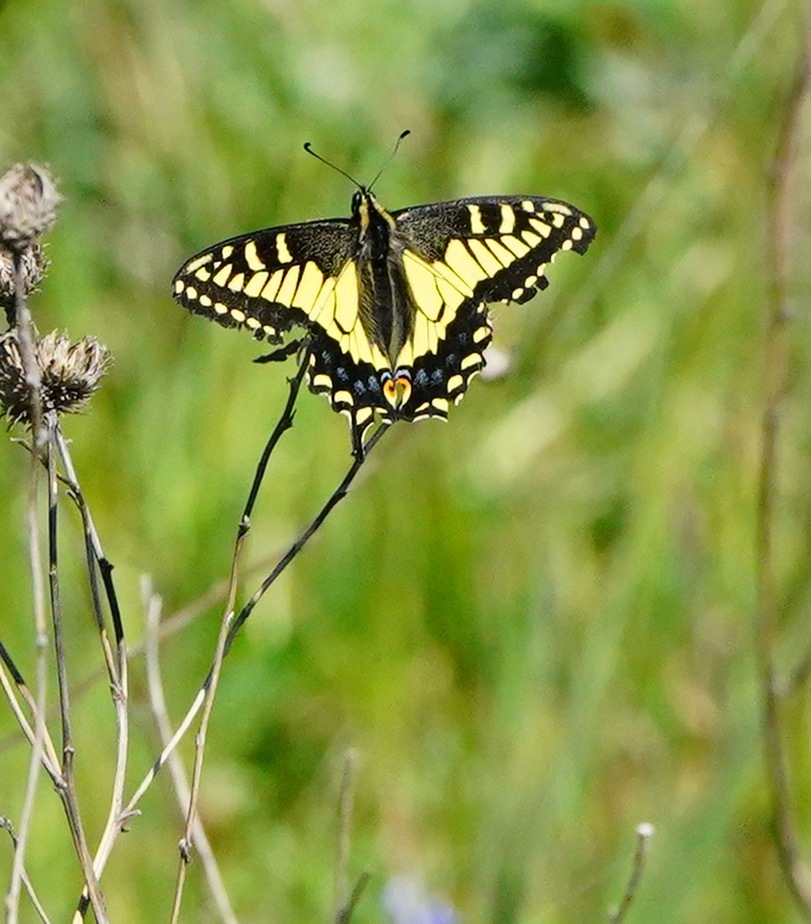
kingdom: Animalia
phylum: Arthropoda
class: Insecta
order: Lepidoptera
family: Papilionidae
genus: Papilio
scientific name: Papilio zelicaon
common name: Anise swallowtail
